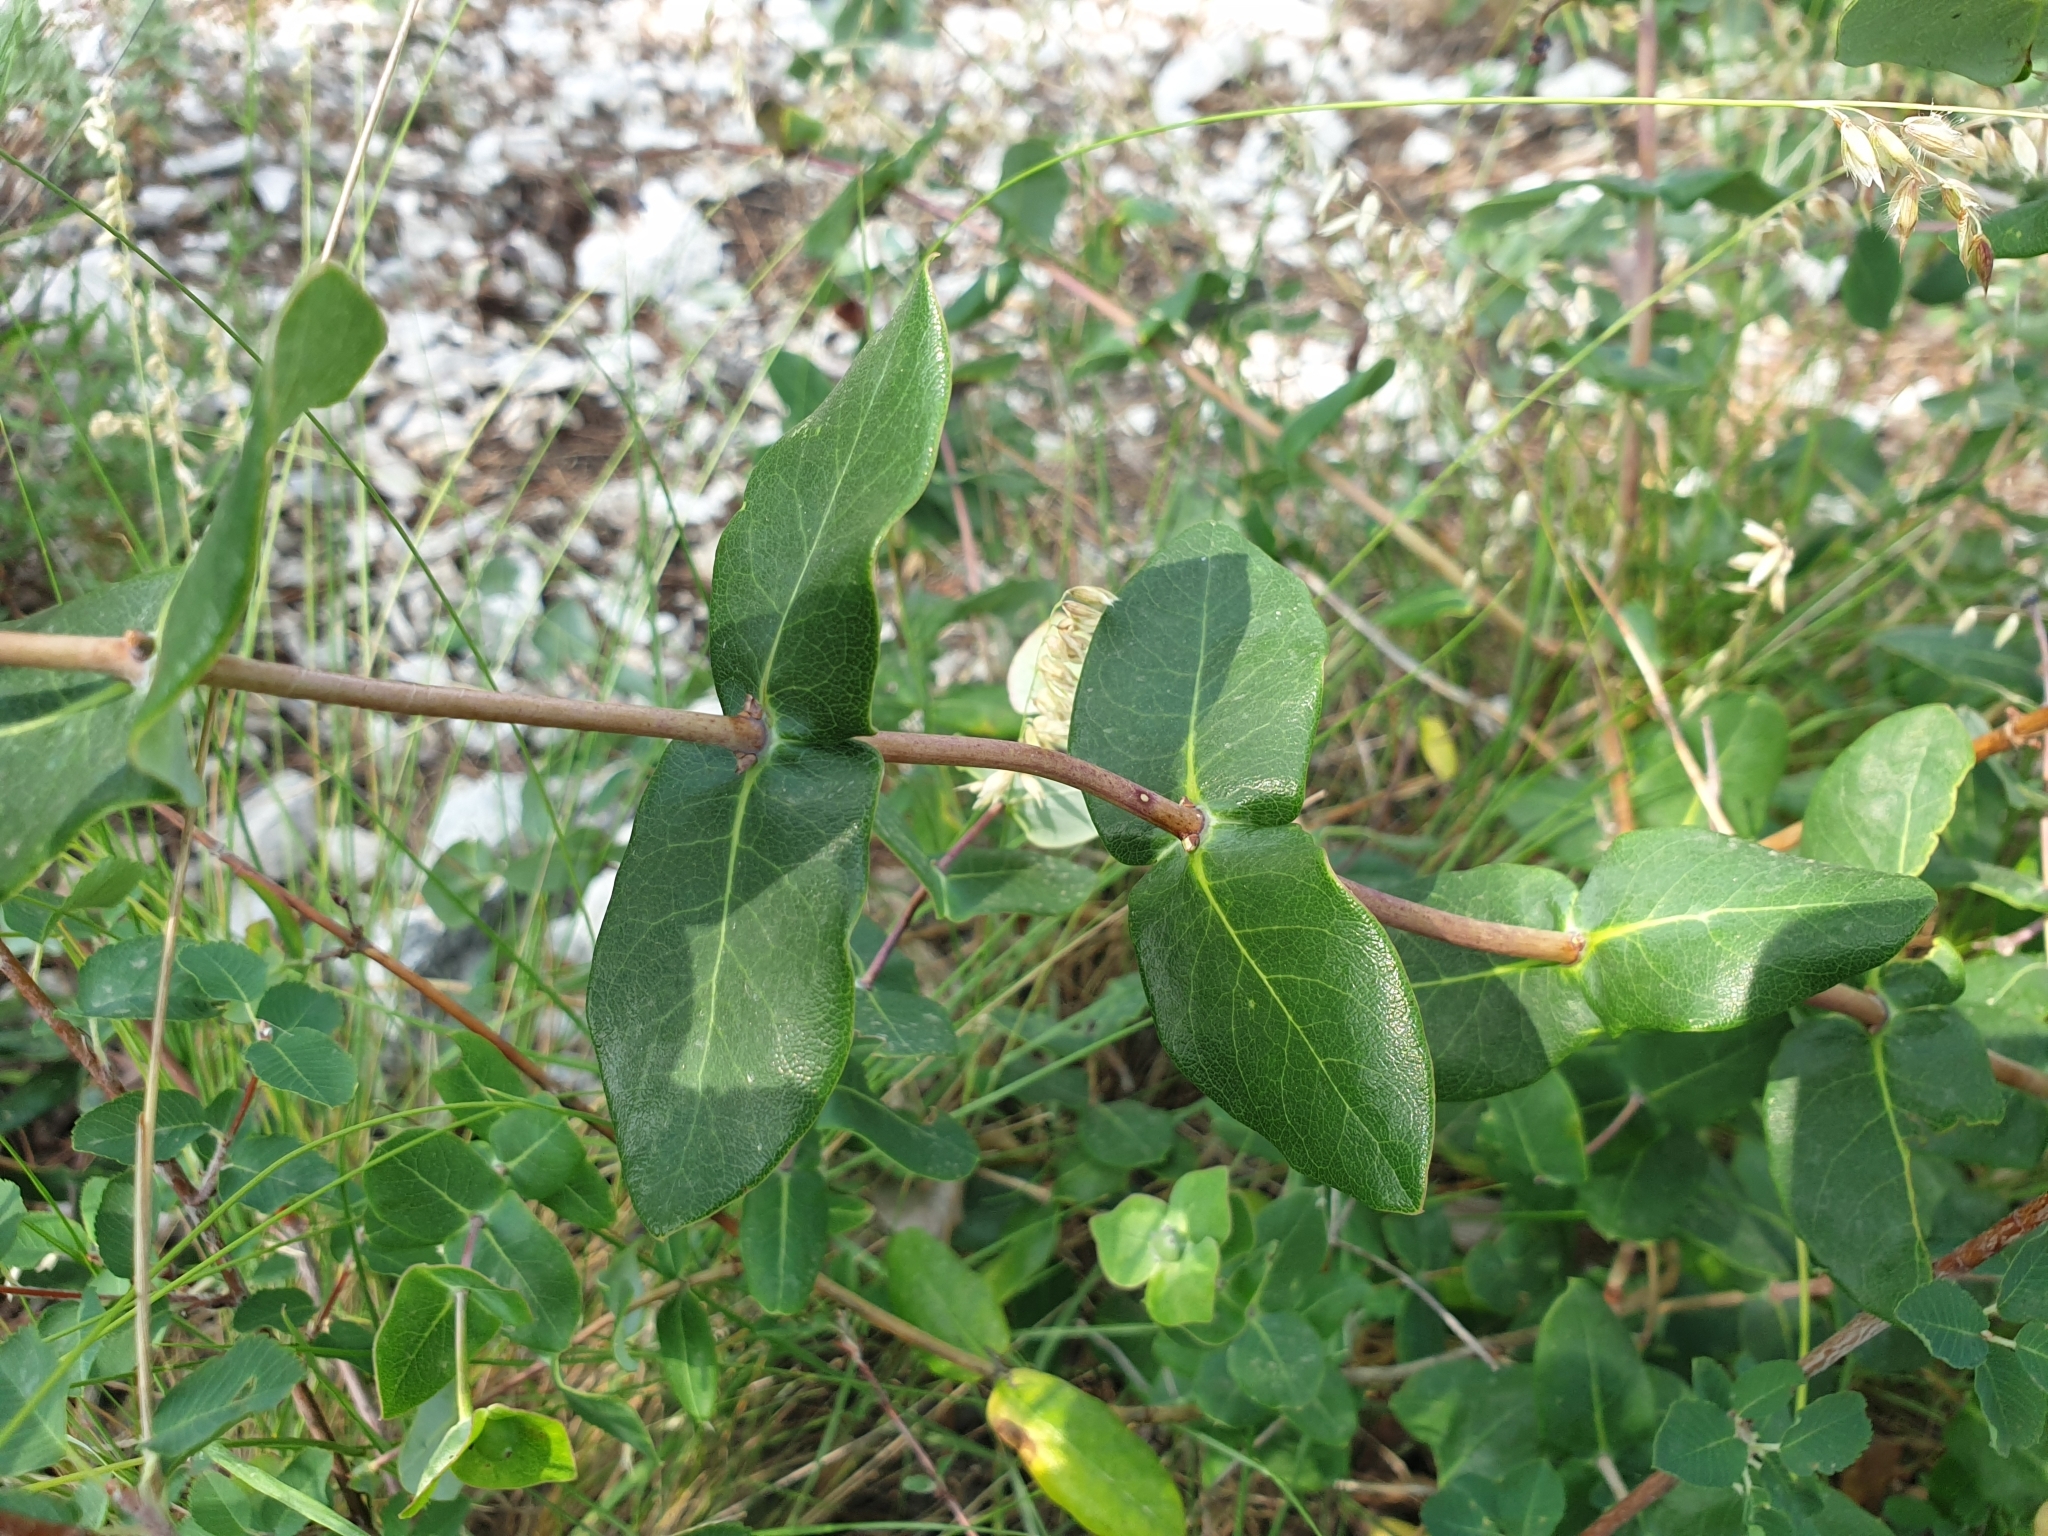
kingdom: Plantae
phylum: Tracheophyta
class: Magnoliopsida
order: Dipsacales
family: Caprifoliaceae
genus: Lonicera
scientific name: Lonicera implexa
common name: Minorca honeysuckle
